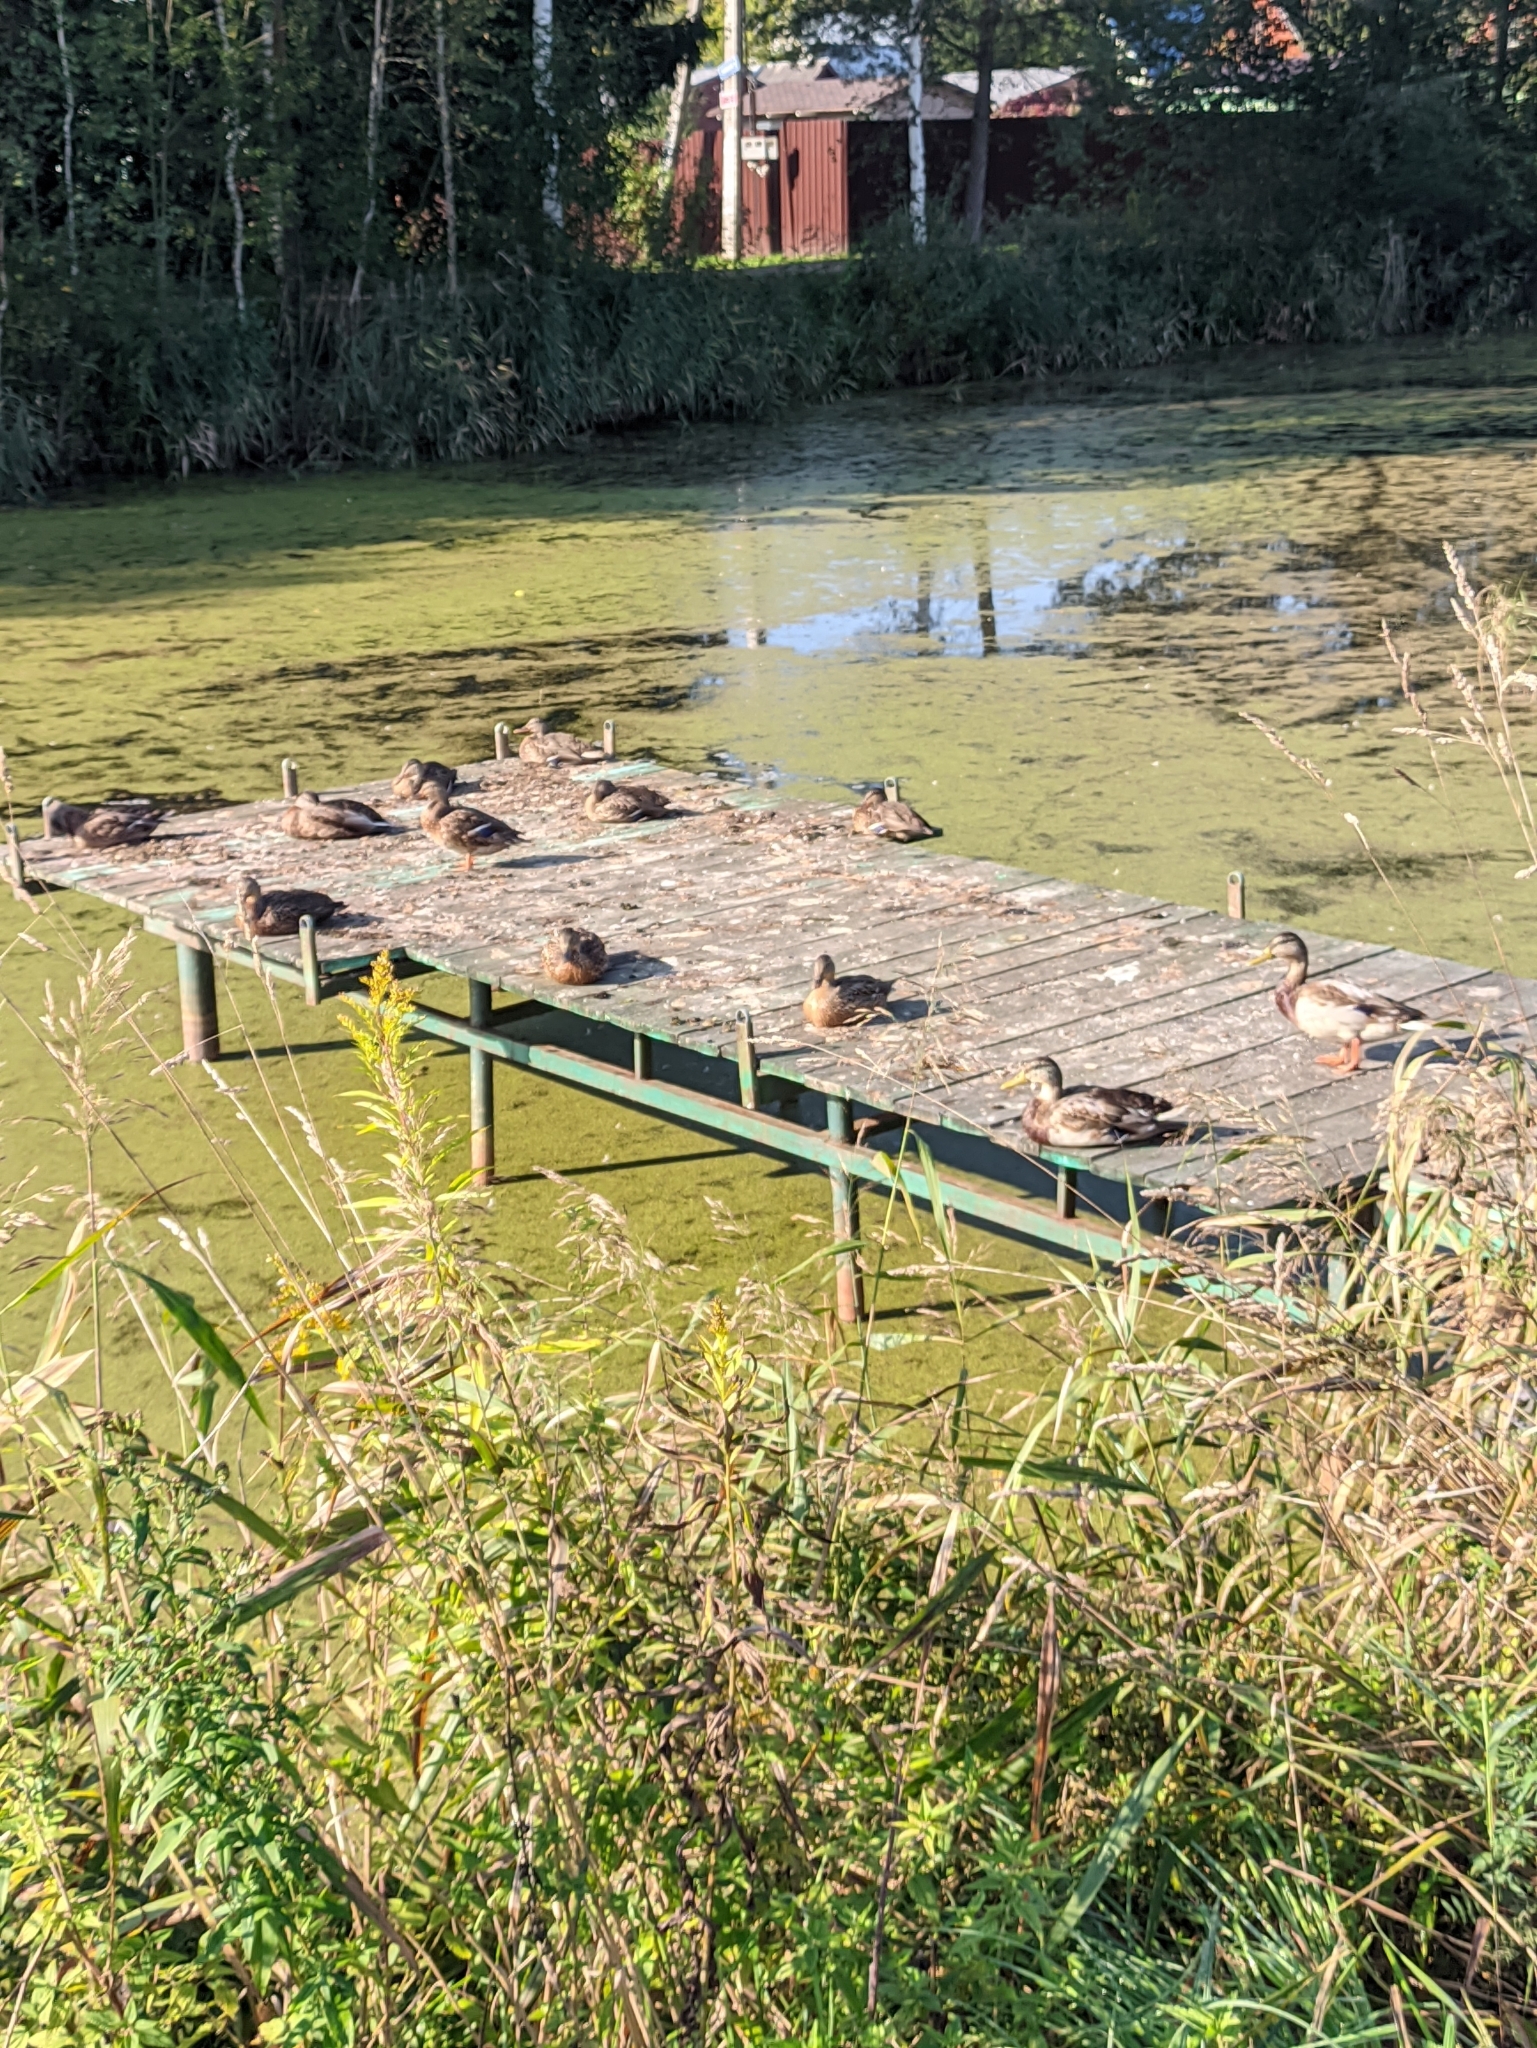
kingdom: Animalia
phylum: Chordata
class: Aves
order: Anseriformes
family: Anatidae
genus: Anas
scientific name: Anas platyrhynchos
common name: Mallard
